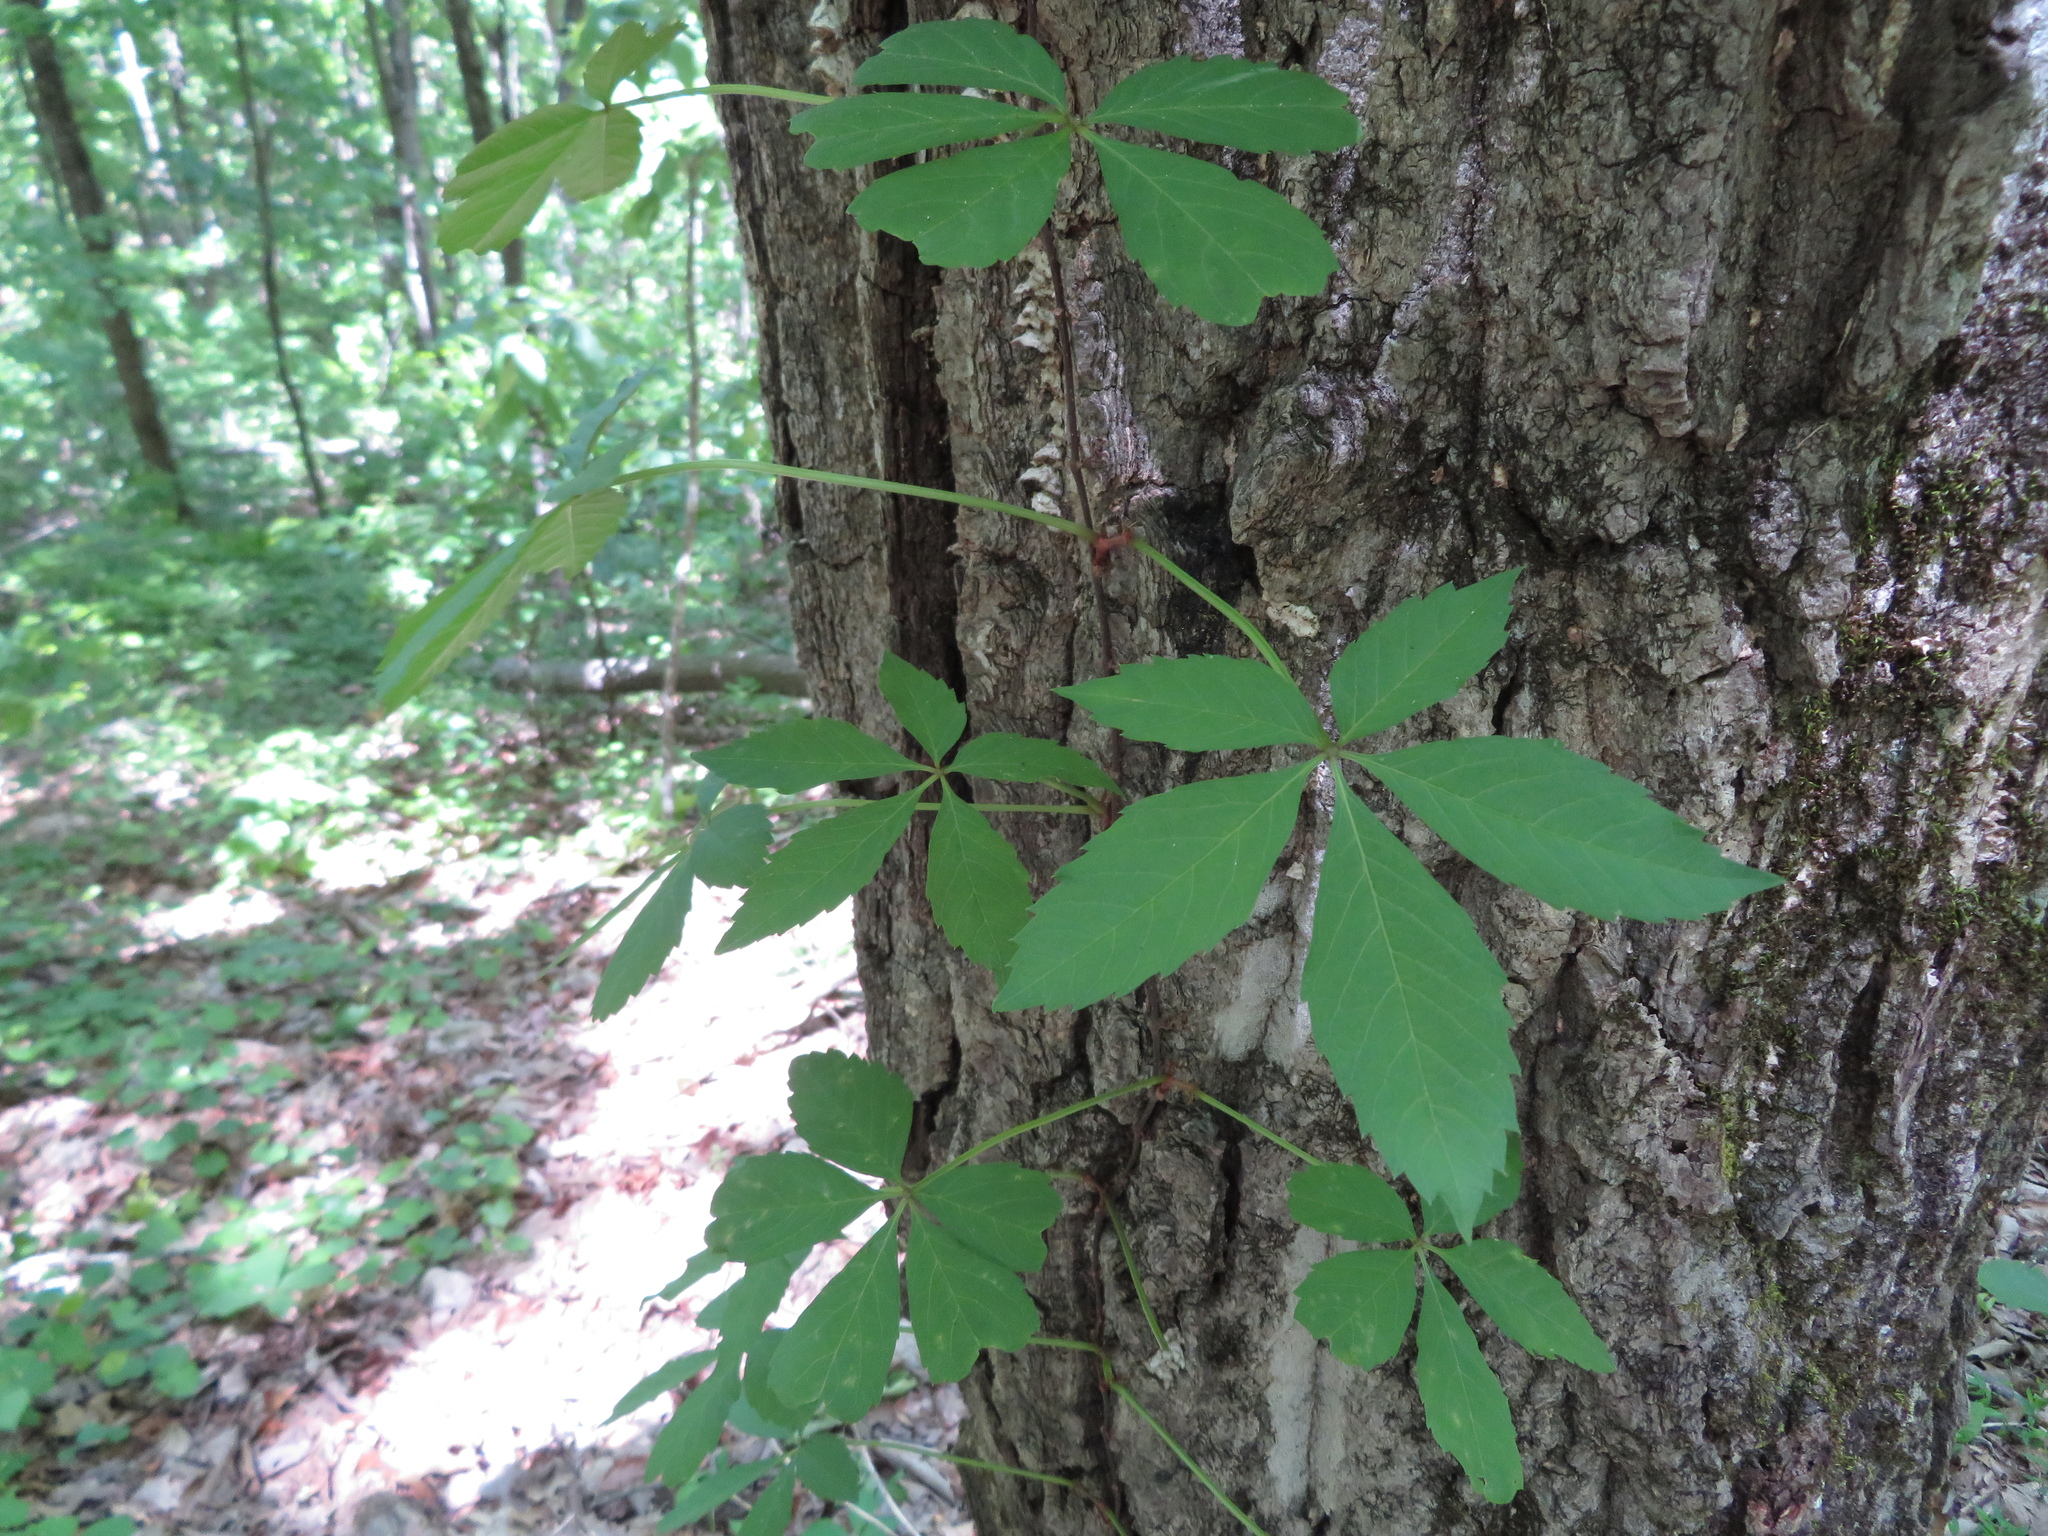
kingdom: Plantae
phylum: Tracheophyta
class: Magnoliopsida
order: Vitales
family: Vitaceae
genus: Parthenocissus
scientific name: Parthenocissus quinquefolia
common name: Virginia-creeper
